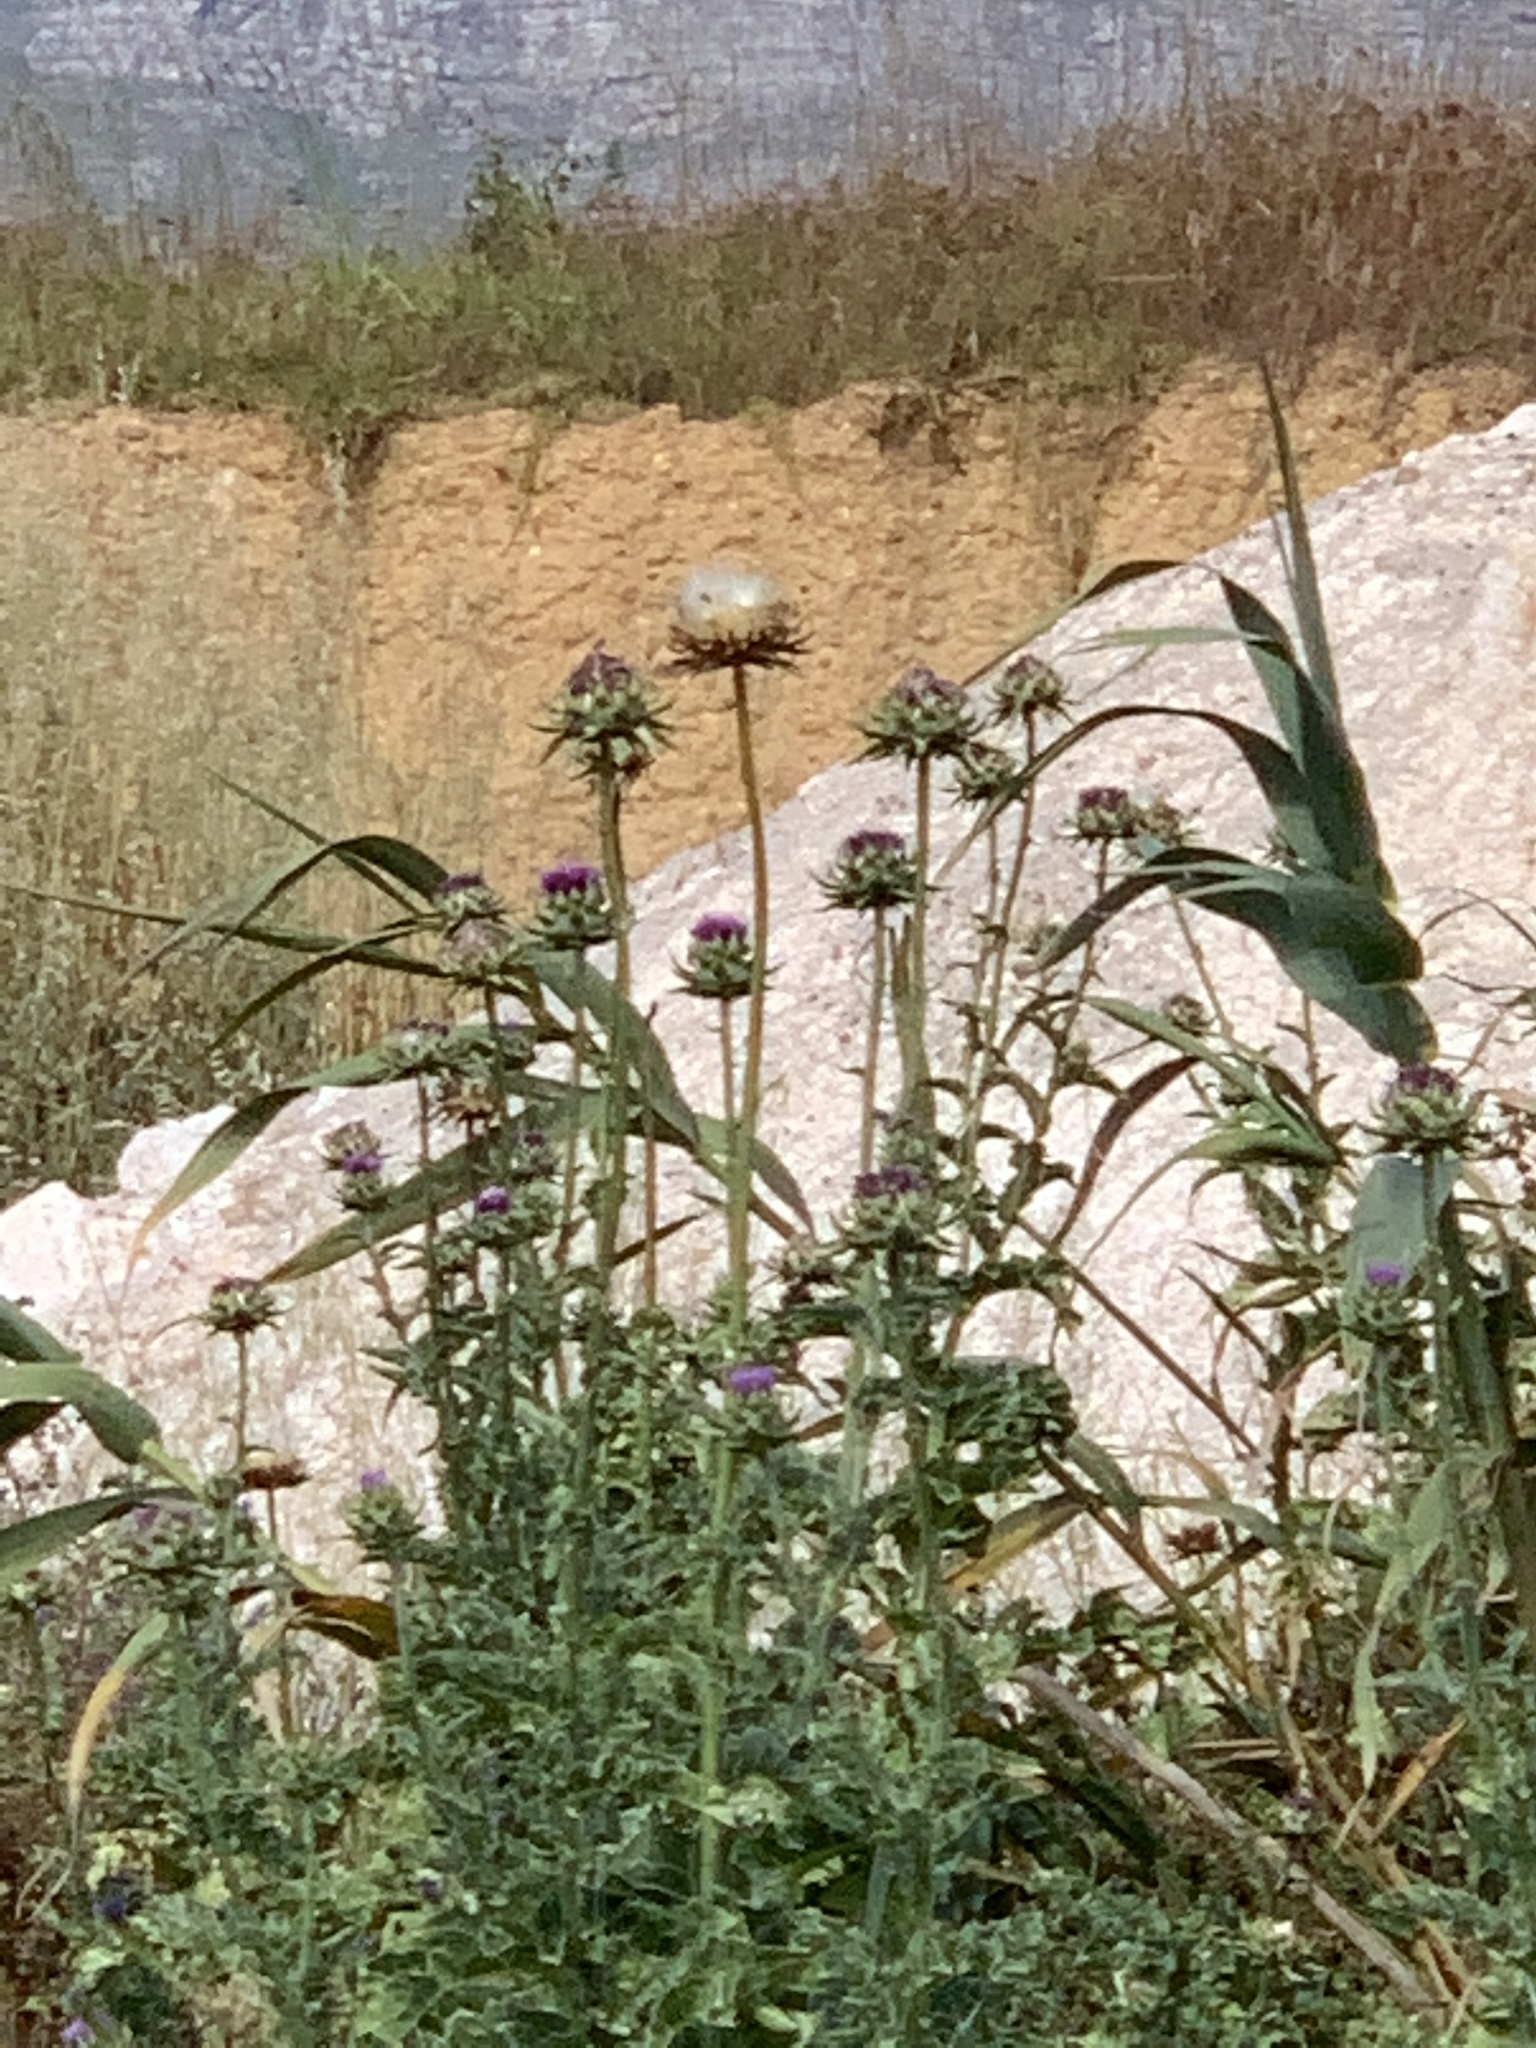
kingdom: Plantae
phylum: Tracheophyta
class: Magnoliopsida
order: Asterales
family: Asteraceae
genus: Silybum
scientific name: Silybum marianum
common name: Milk thistle
